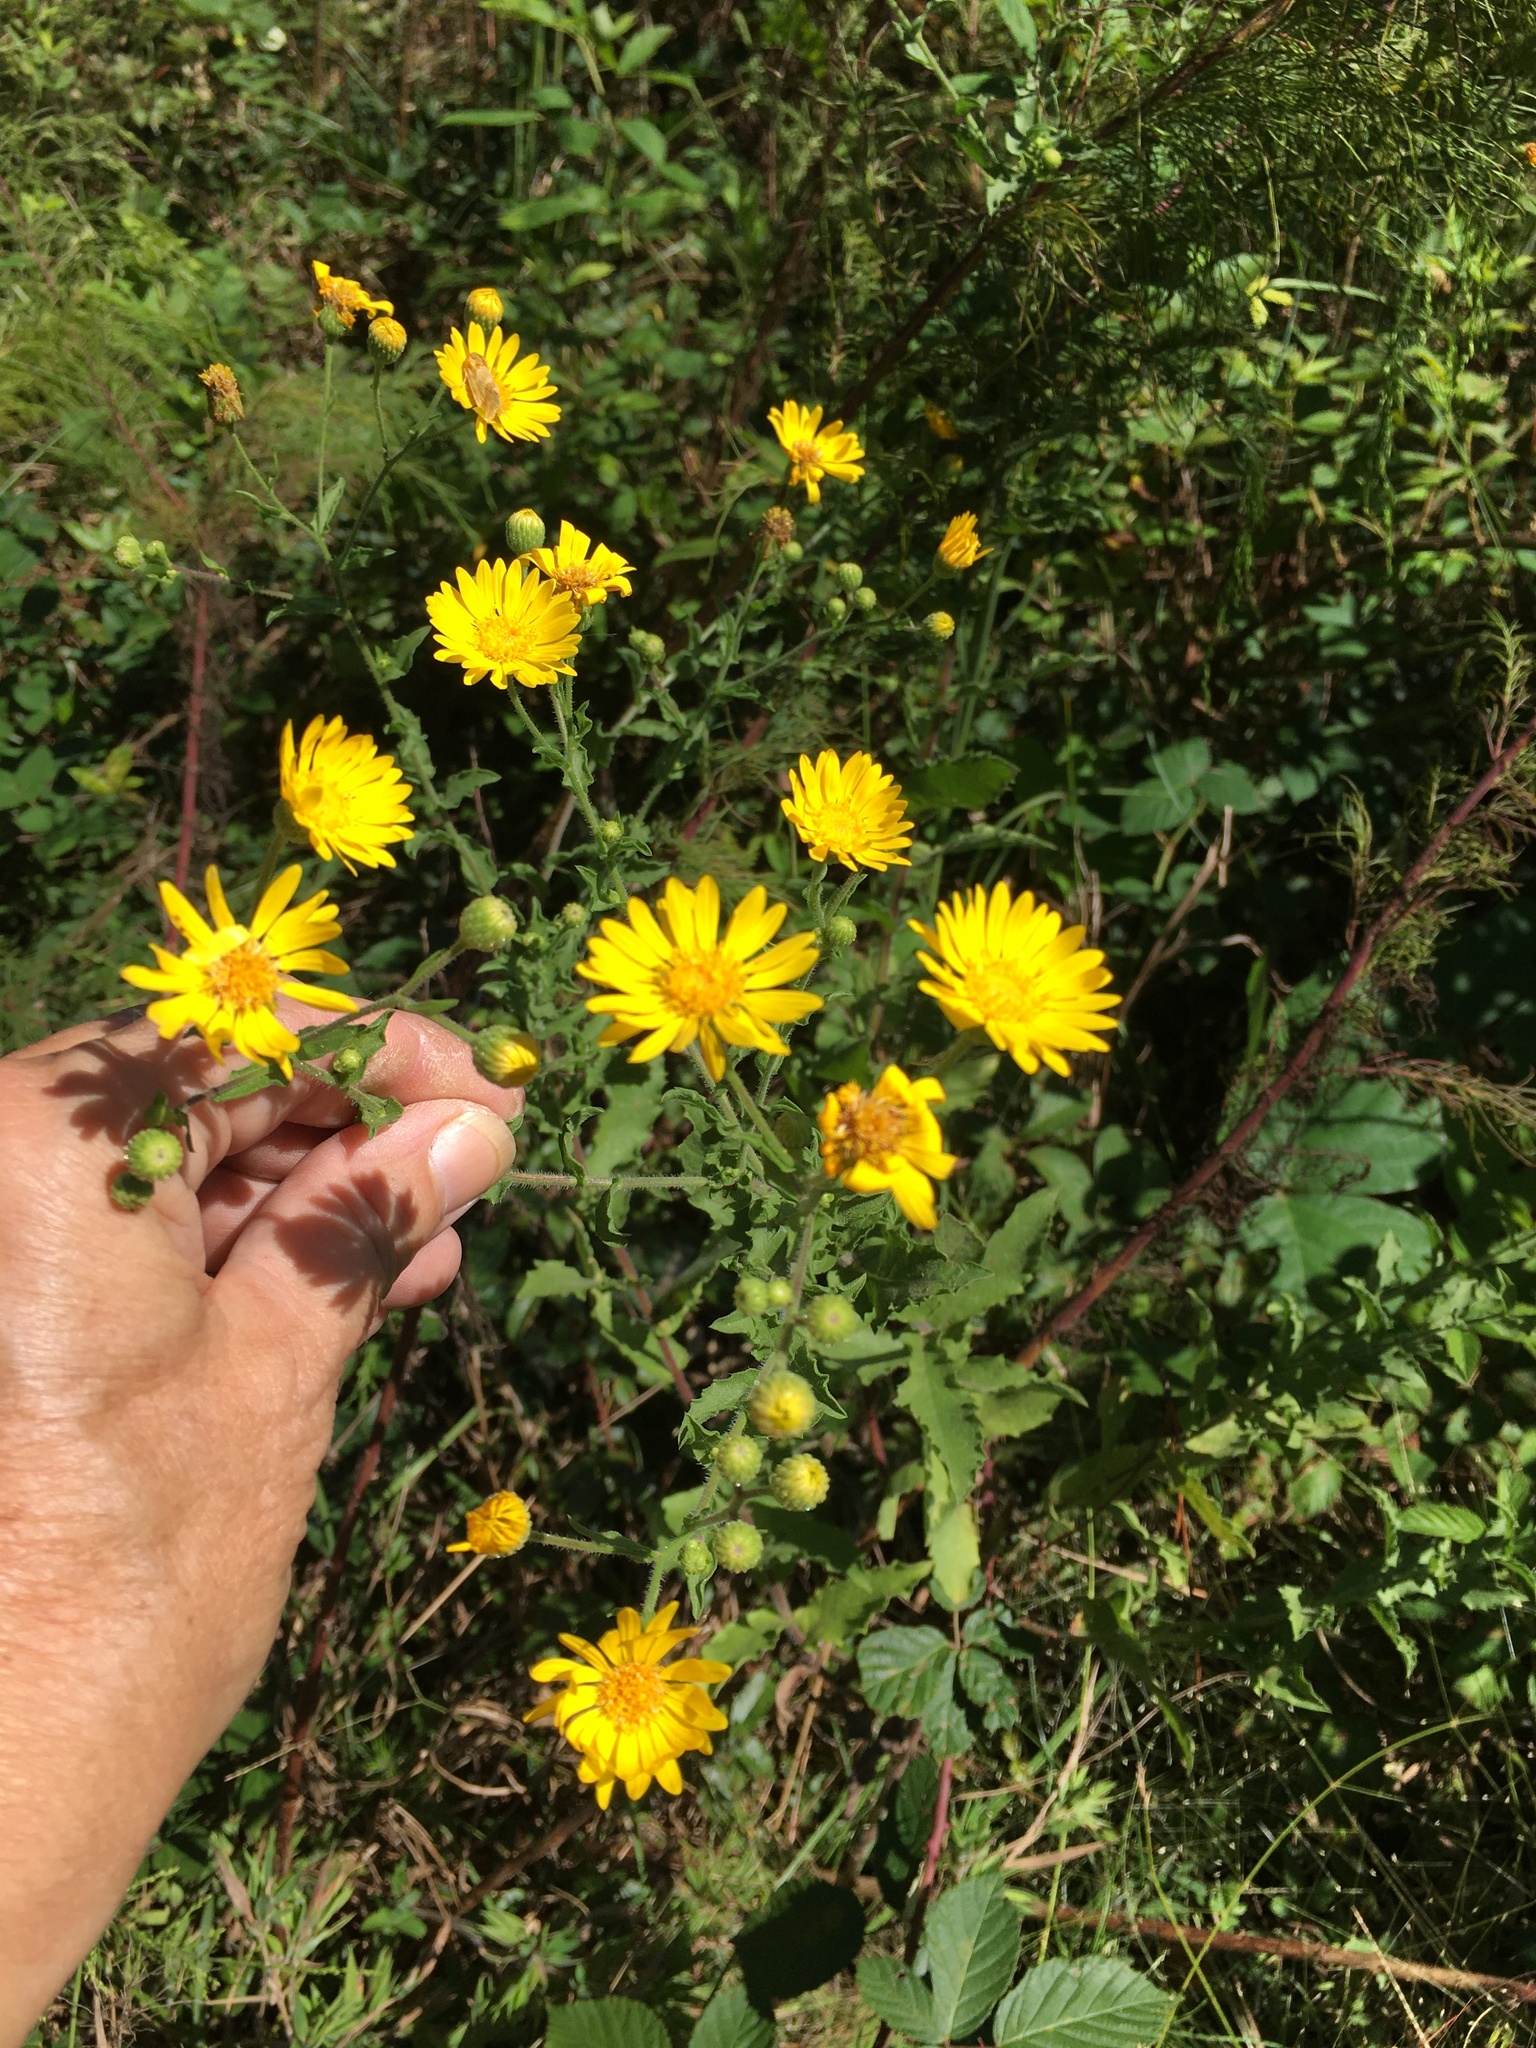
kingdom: Plantae
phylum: Tracheophyta
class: Magnoliopsida
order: Asterales
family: Asteraceae
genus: Heterotheca
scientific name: Heterotheca subaxillaris
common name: Camphorweed
